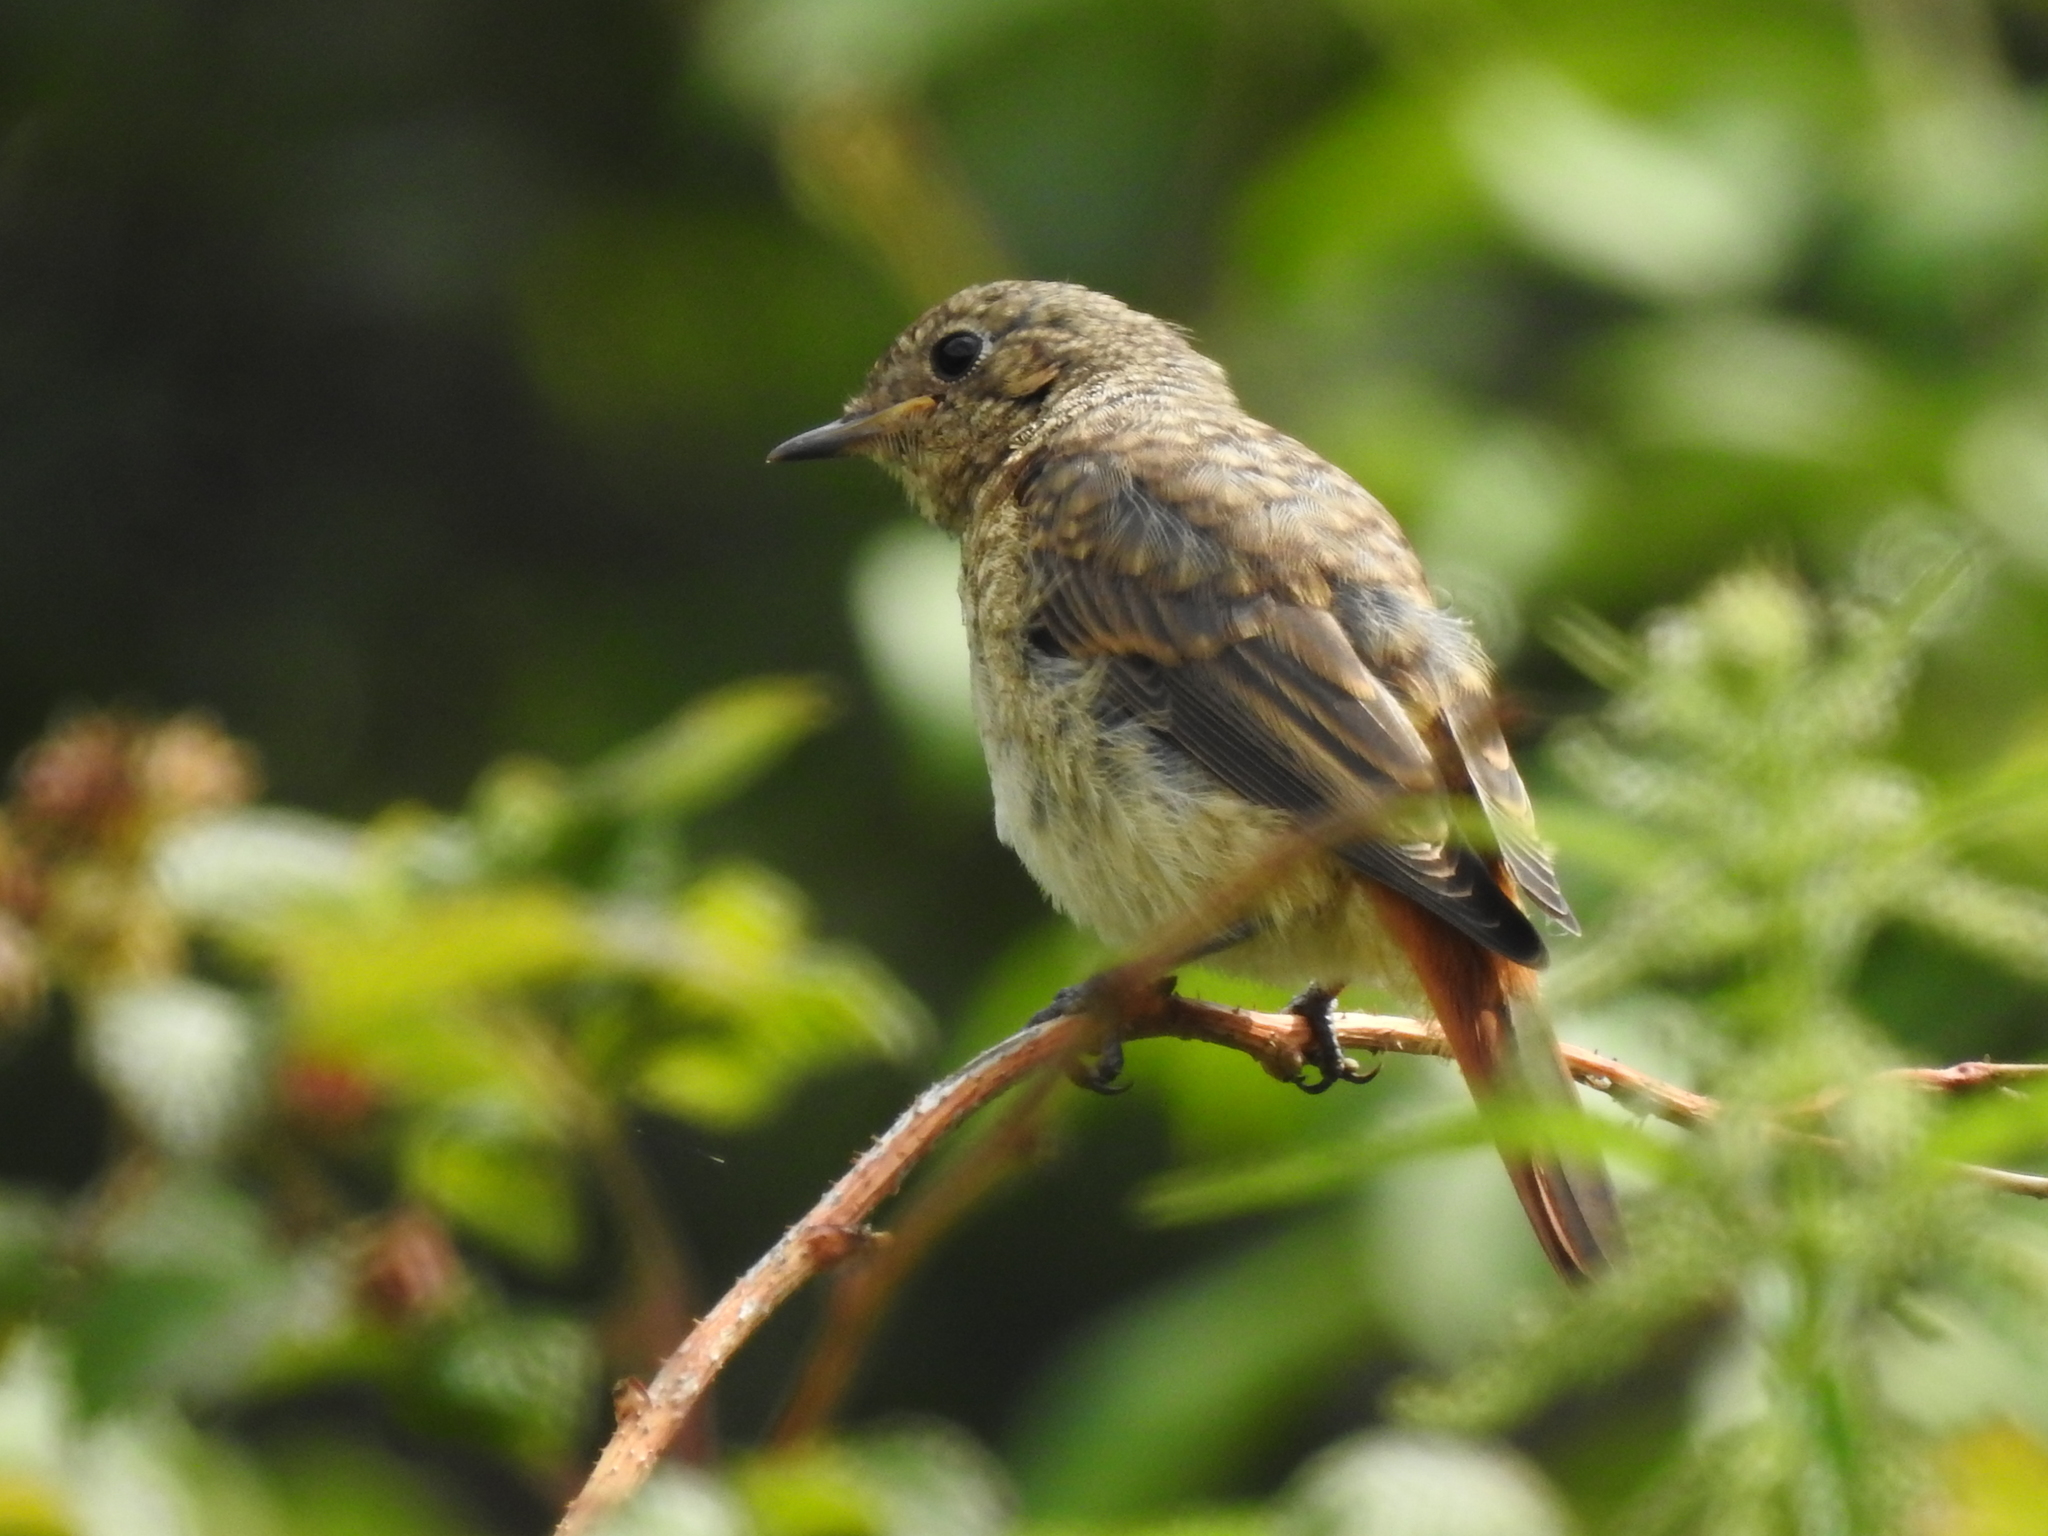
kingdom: Animalia
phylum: Chordata
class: Aves
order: Passeriformes
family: Muscicapidae
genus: Phoenicurus
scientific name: Phoenicurus phoenicurus
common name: Common redstart
